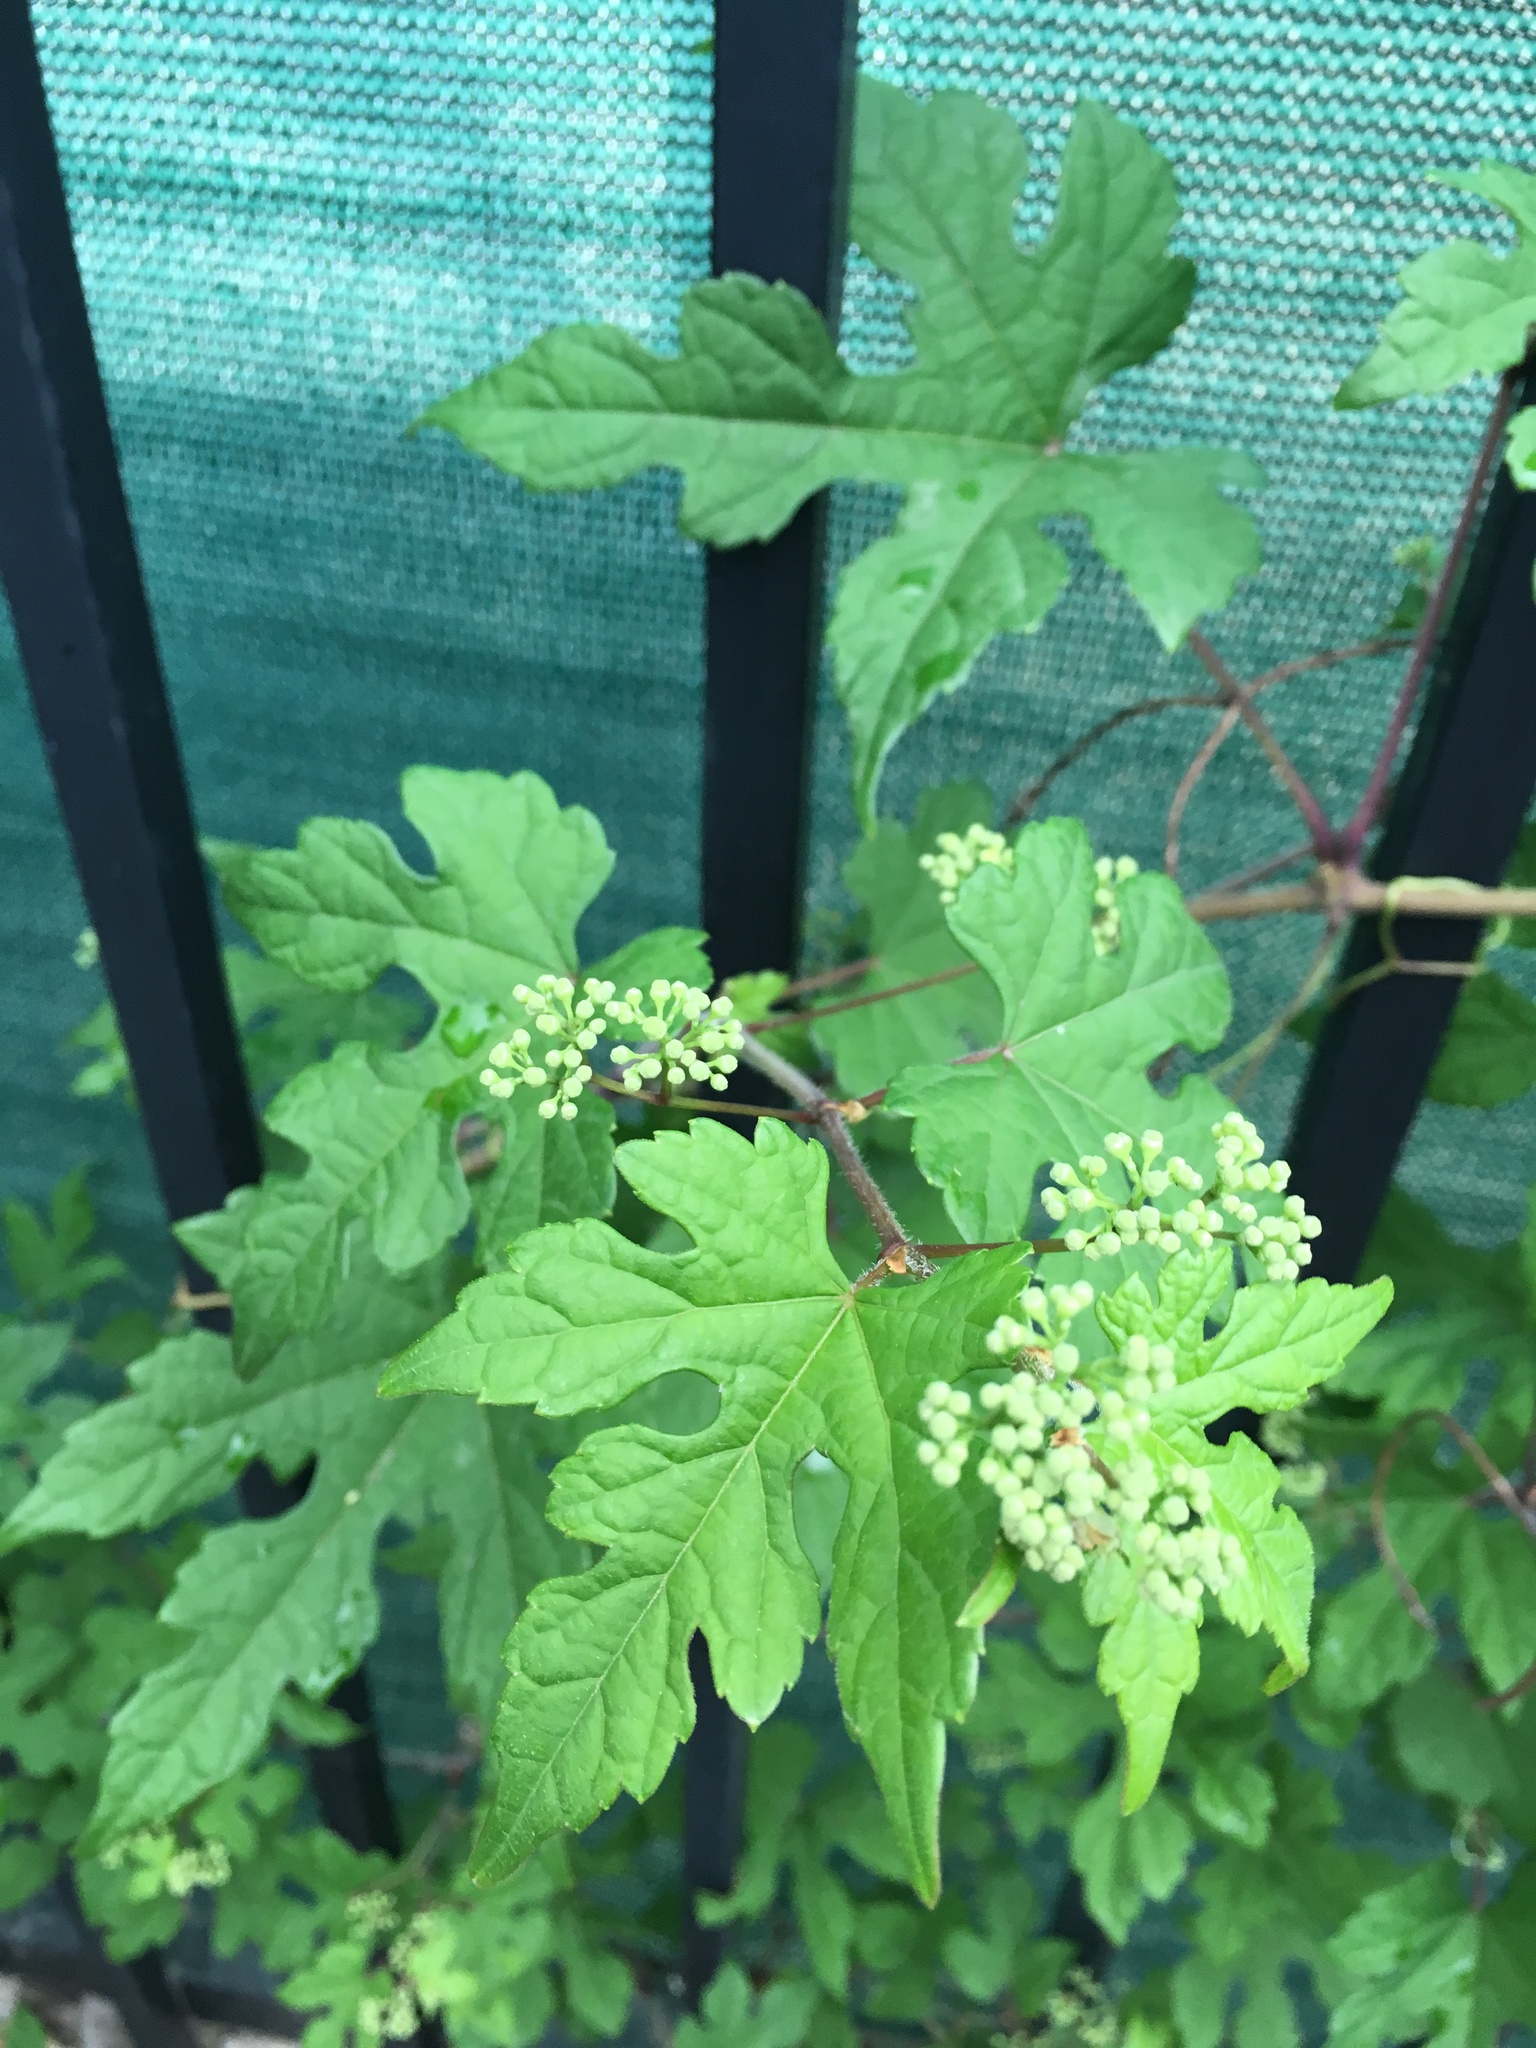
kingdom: Plantae
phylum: Tracheophyta
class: Magnoliopsida
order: Vitales
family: Vitaceae
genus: Ampelopsis
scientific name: Ampelopsis glandulosa
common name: Amur peppervine
